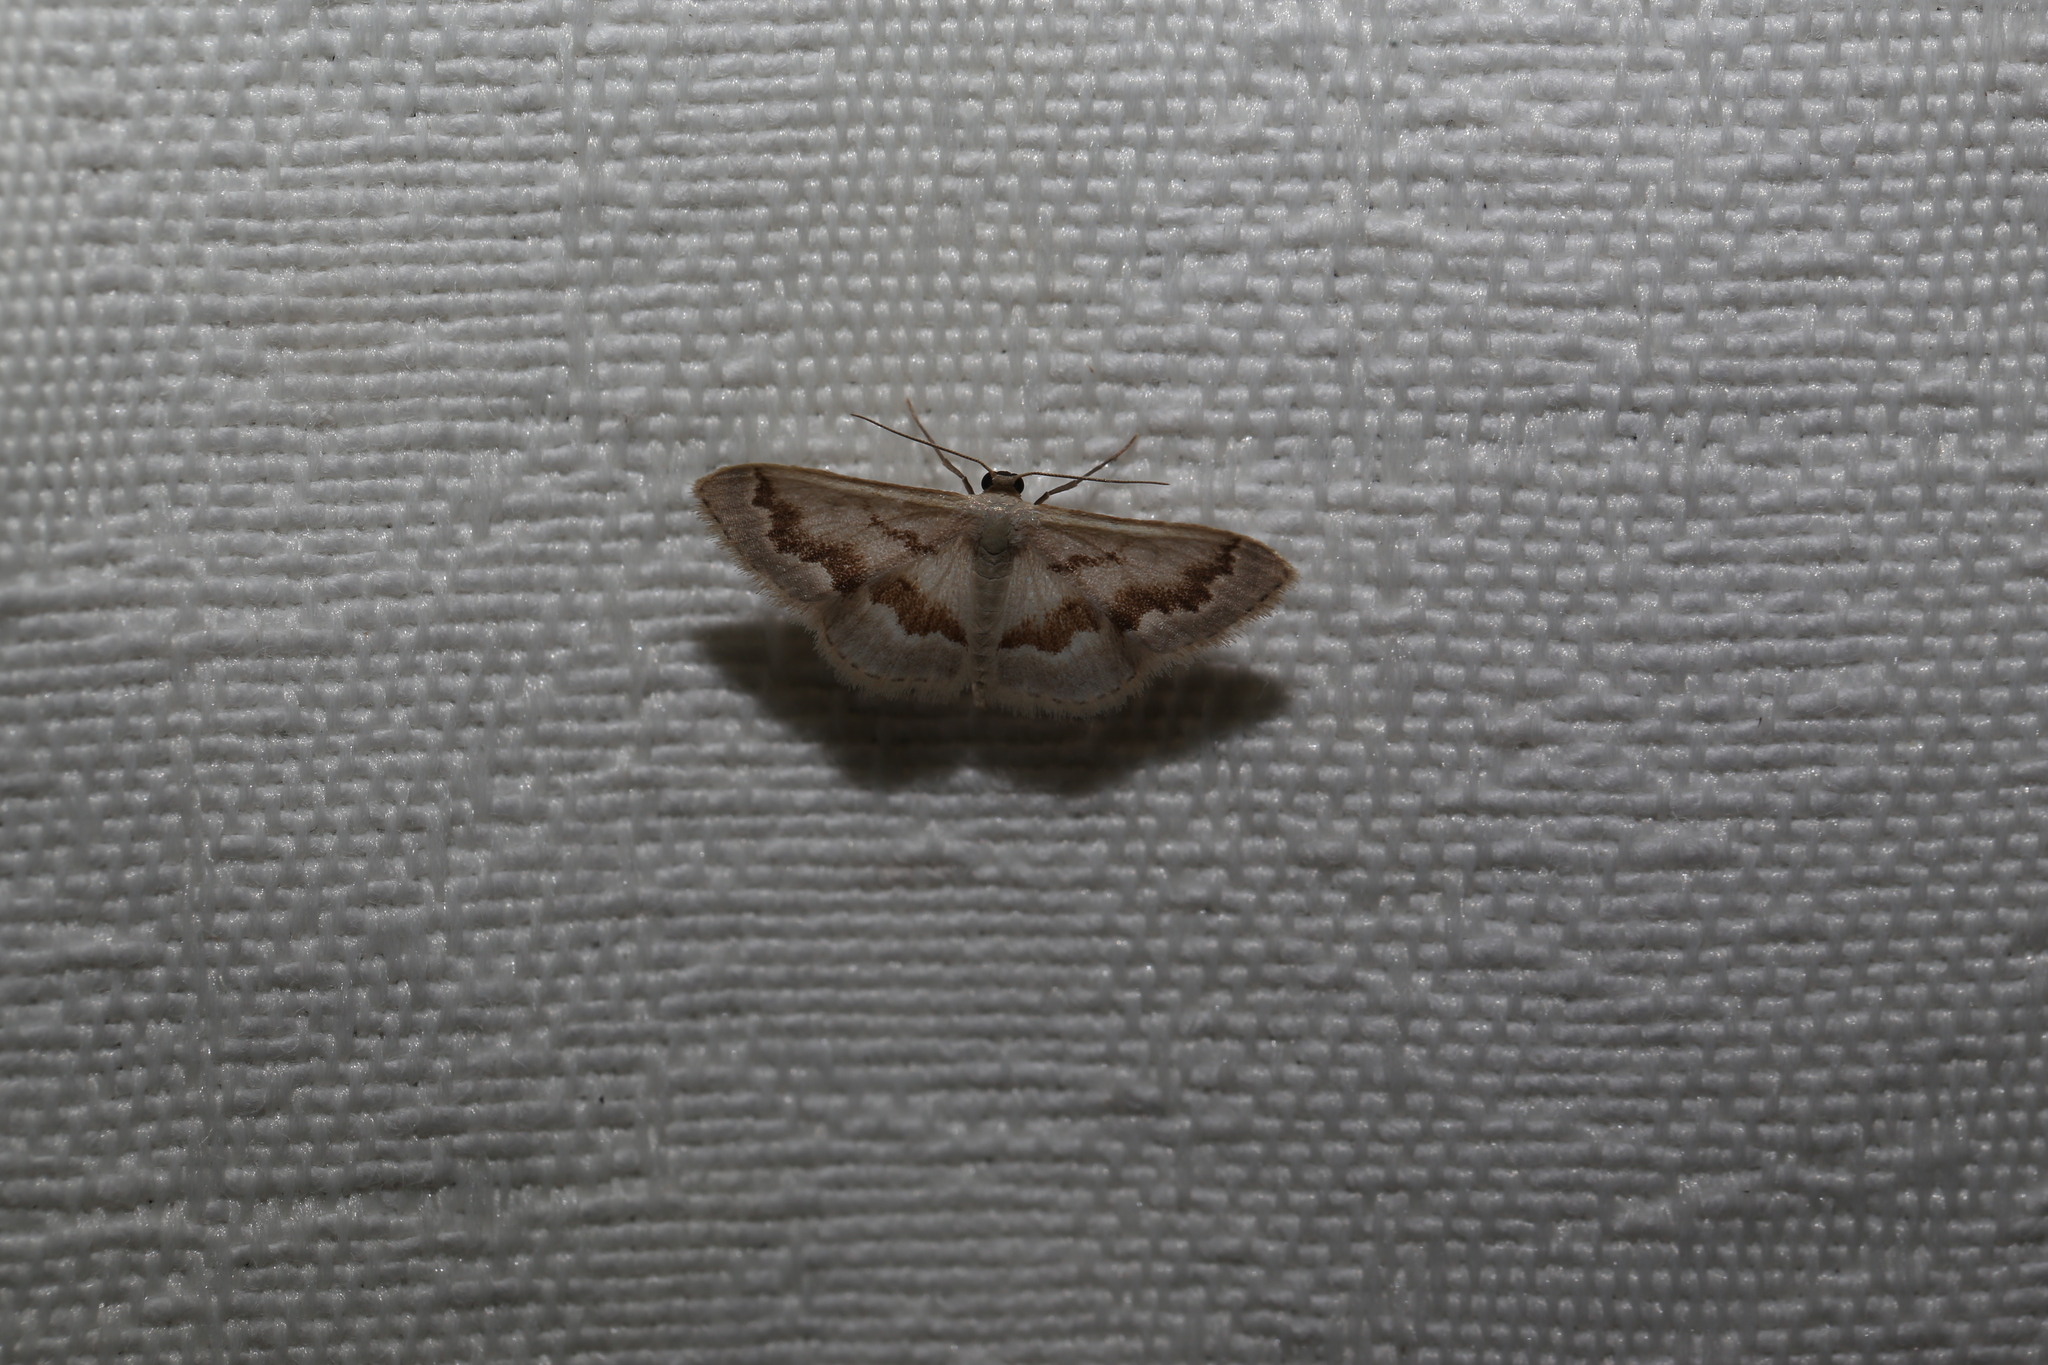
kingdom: Animalia
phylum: Arthropoda
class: Insecta
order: Lepidoptera
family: Geometridae
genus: Idaea
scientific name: Idaea iodesma
